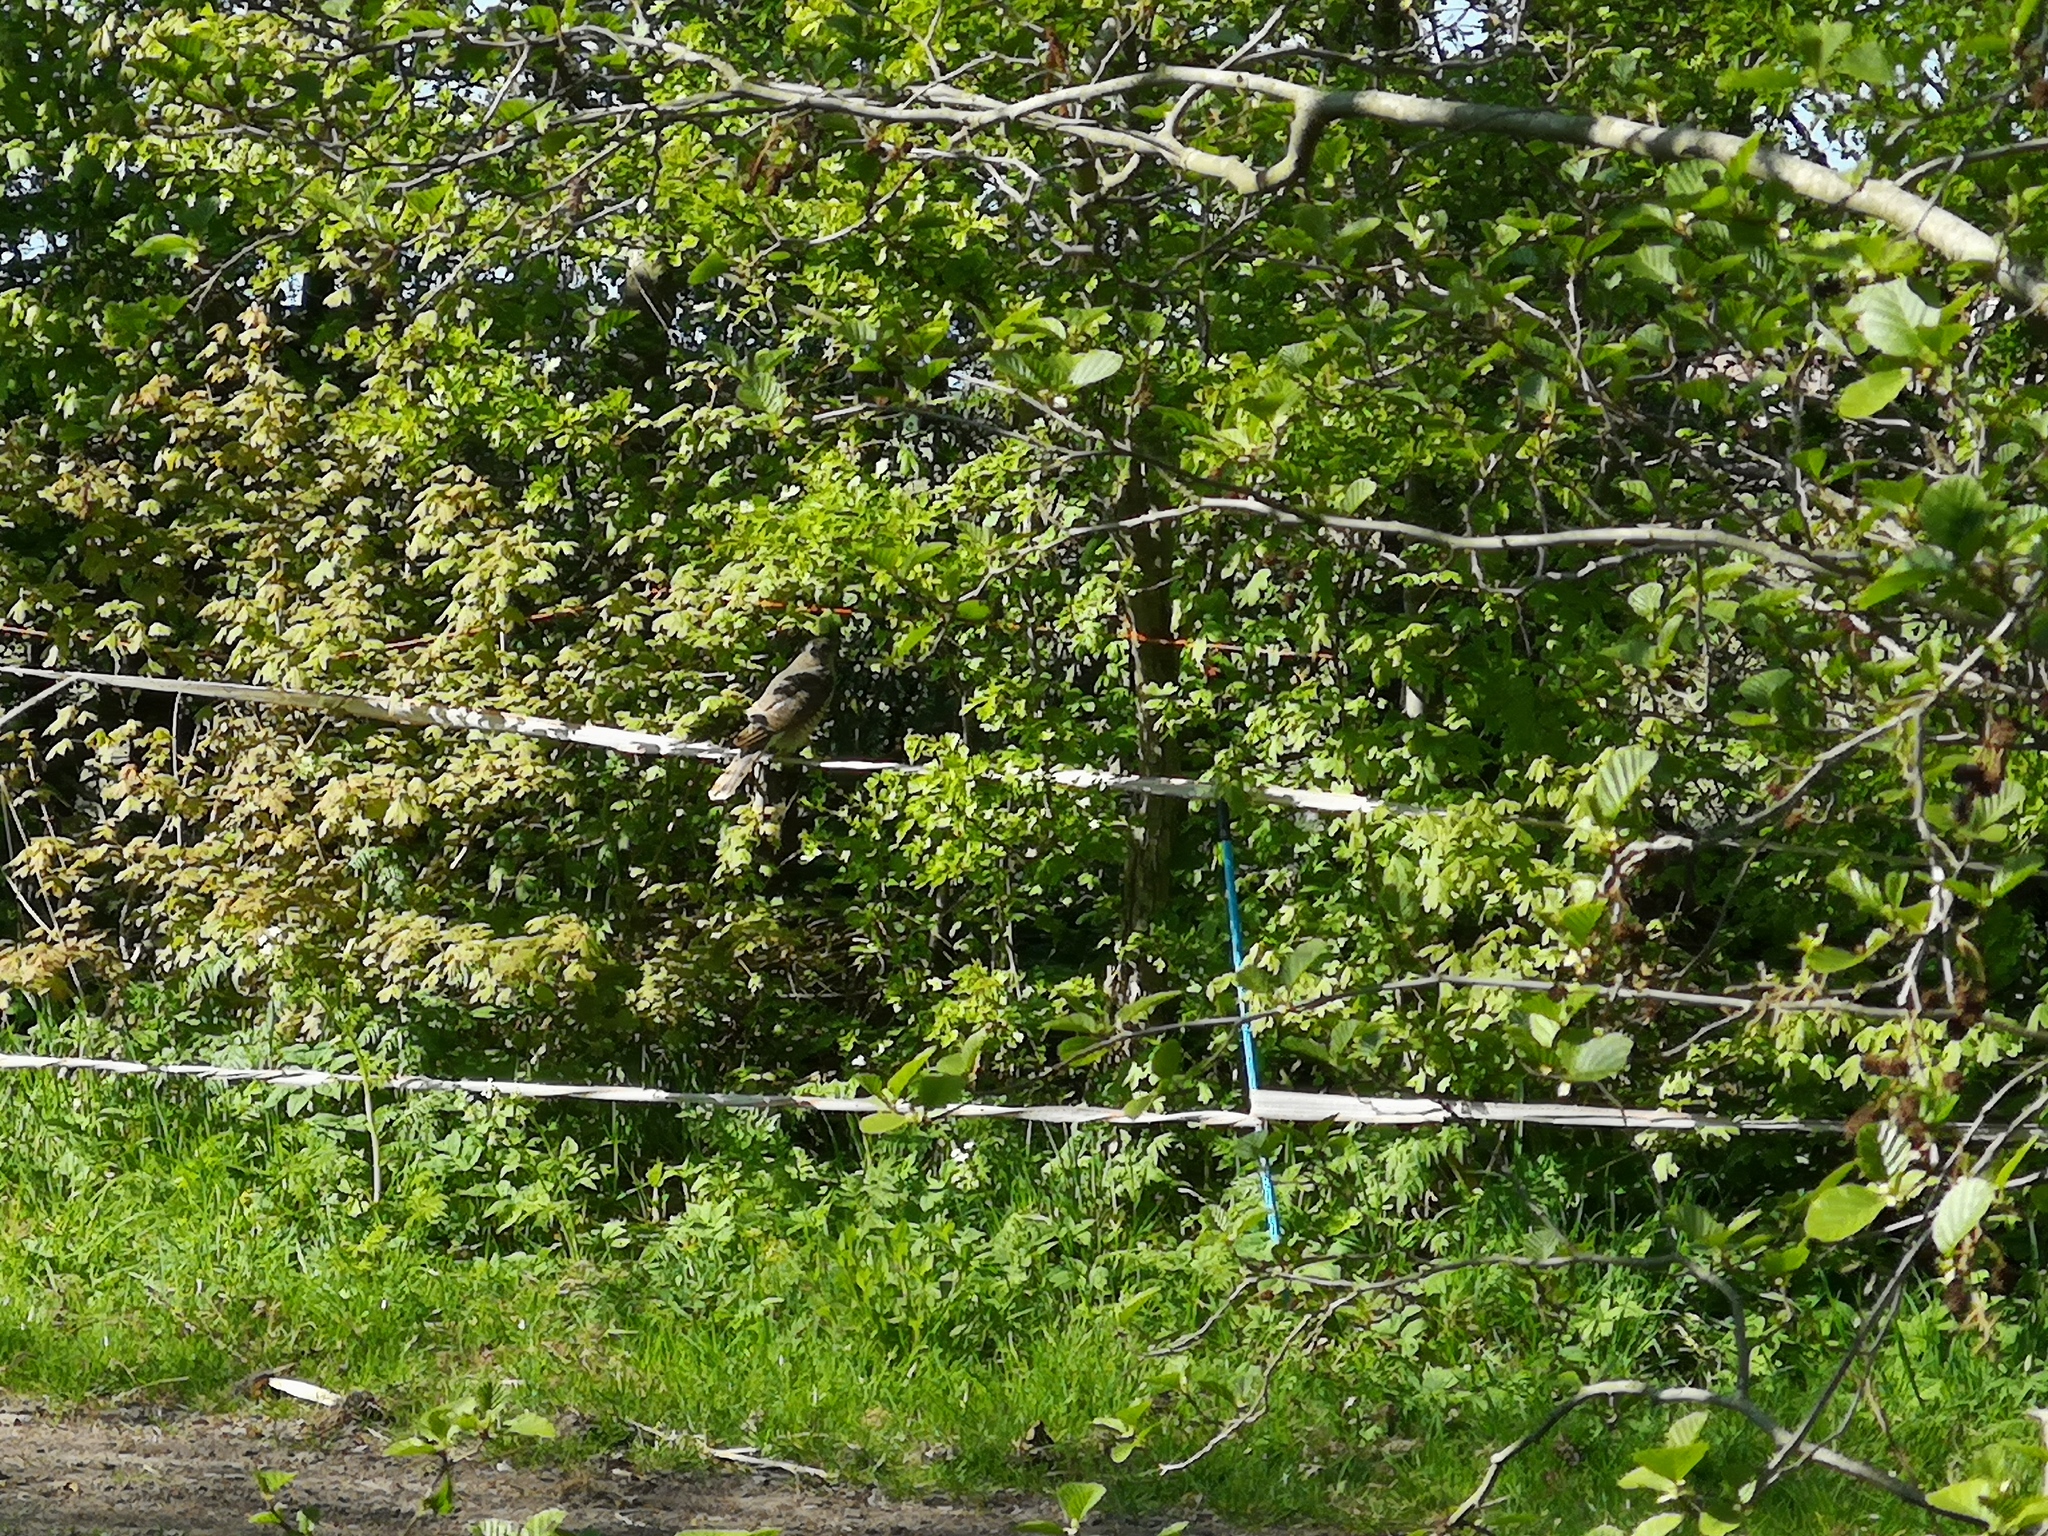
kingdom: Animalia
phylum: Chordata
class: Aves
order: Accipitriformes
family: Accipitridae
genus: Accipiter
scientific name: Accipiter nisus
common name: Eurasian sparrowhawk
